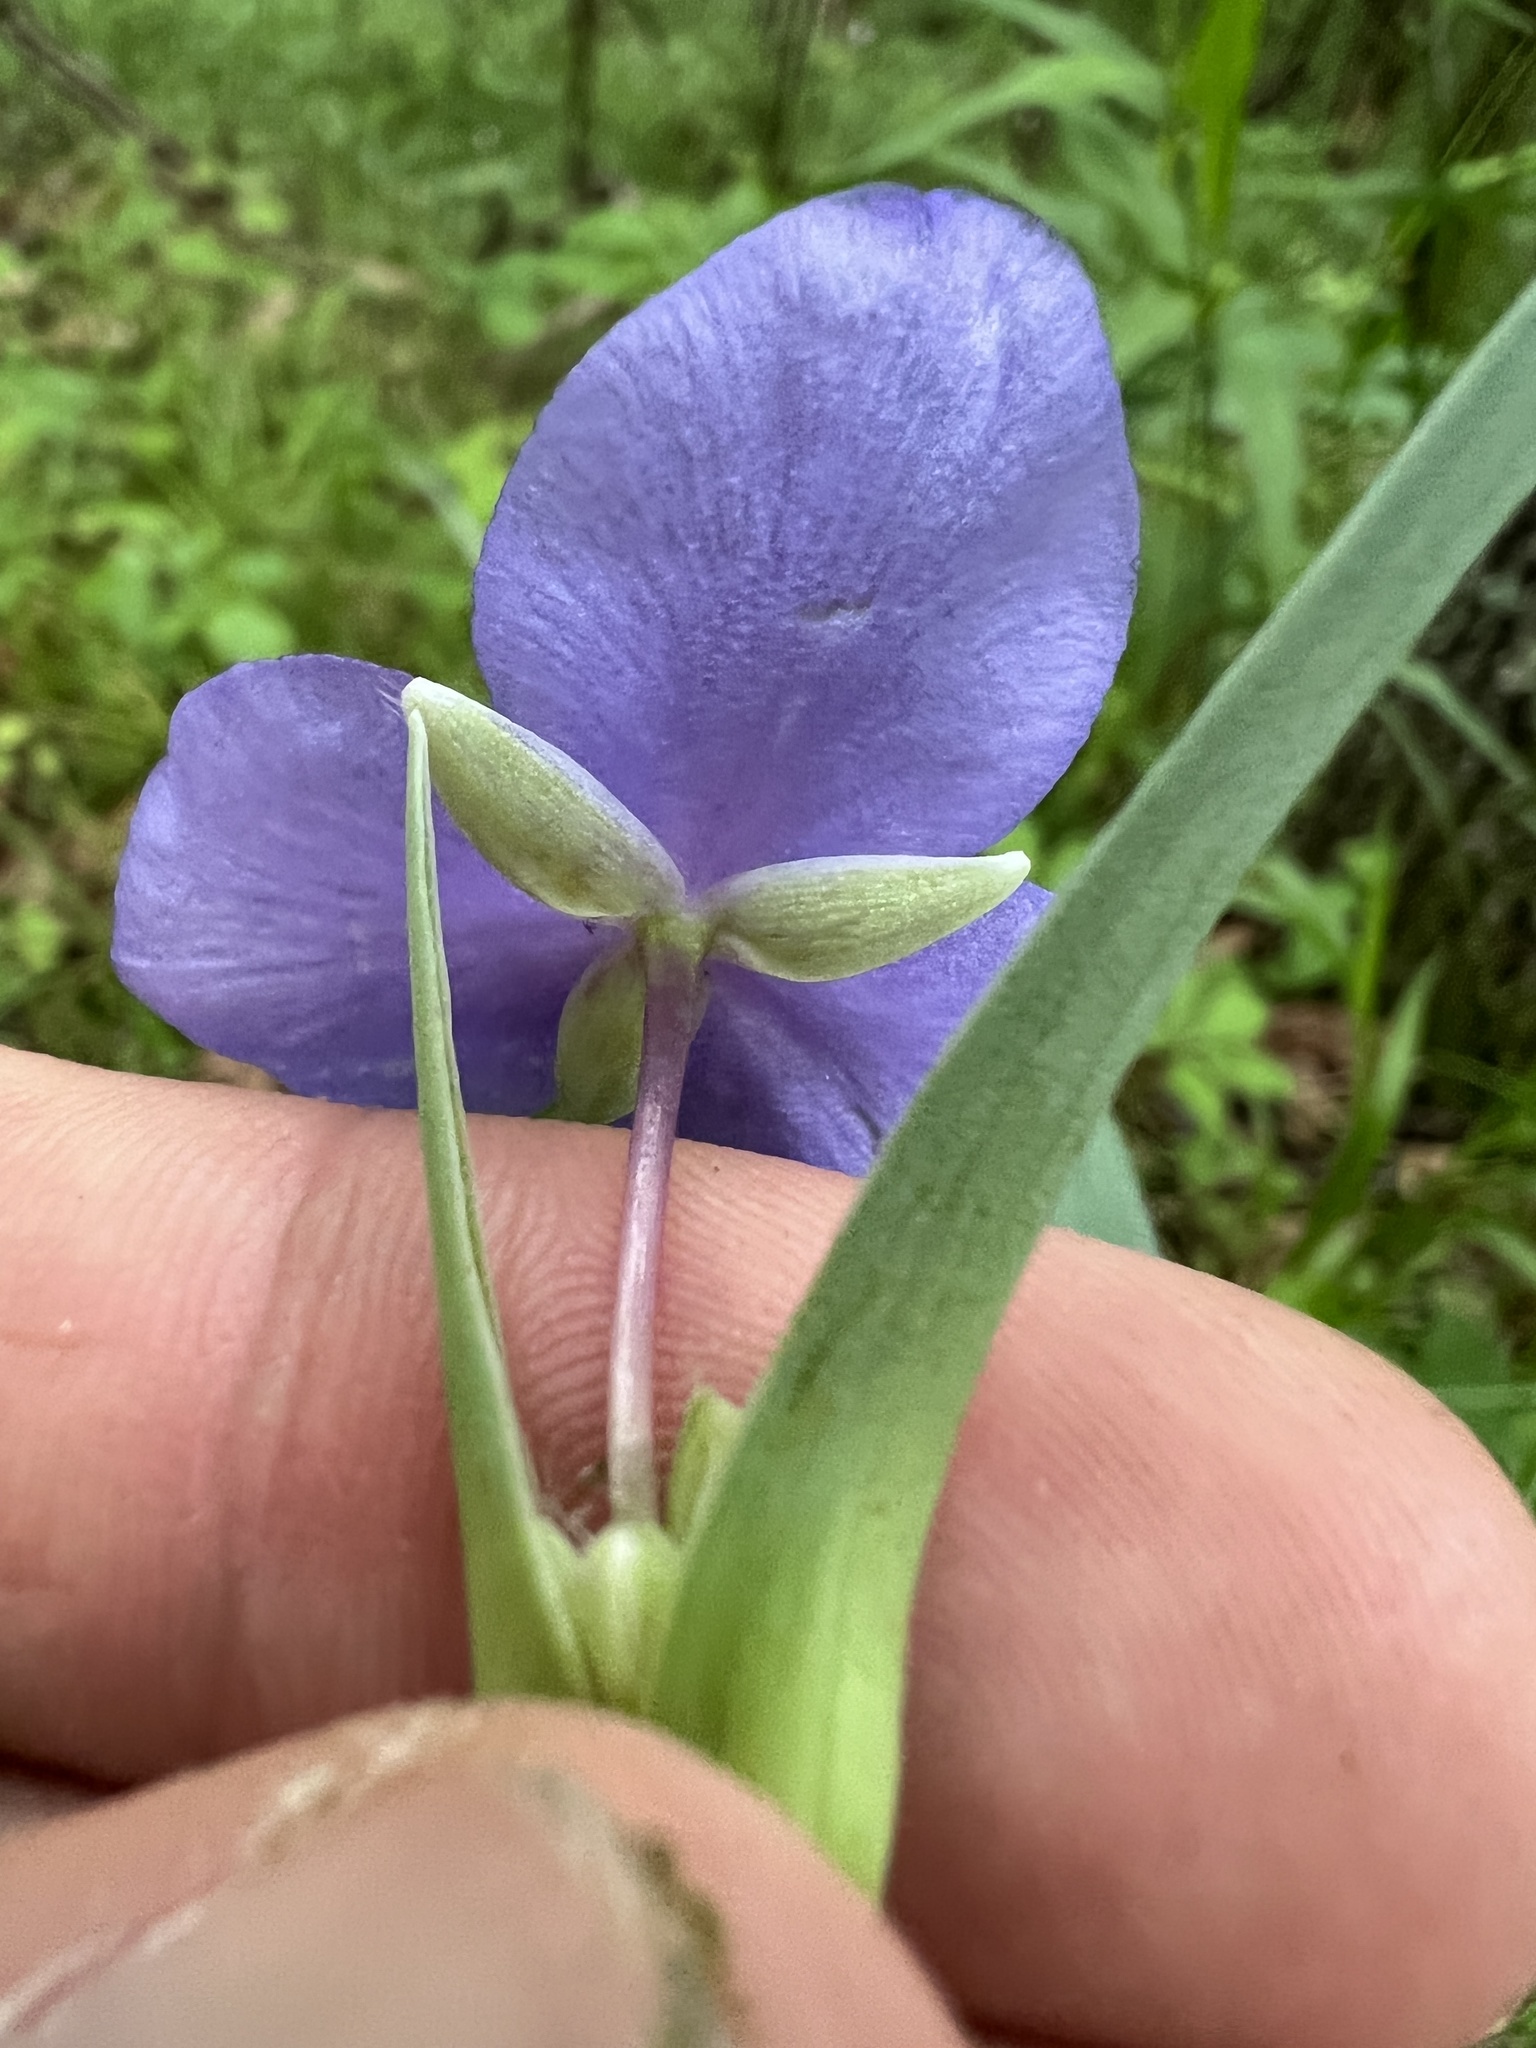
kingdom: Plantae
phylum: Tracheophyta
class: Liliopsida
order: Commelinales
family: Commelinaceae
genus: Tradescantia
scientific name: Tradescantia ohiensis
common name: Ohio spiderwort
